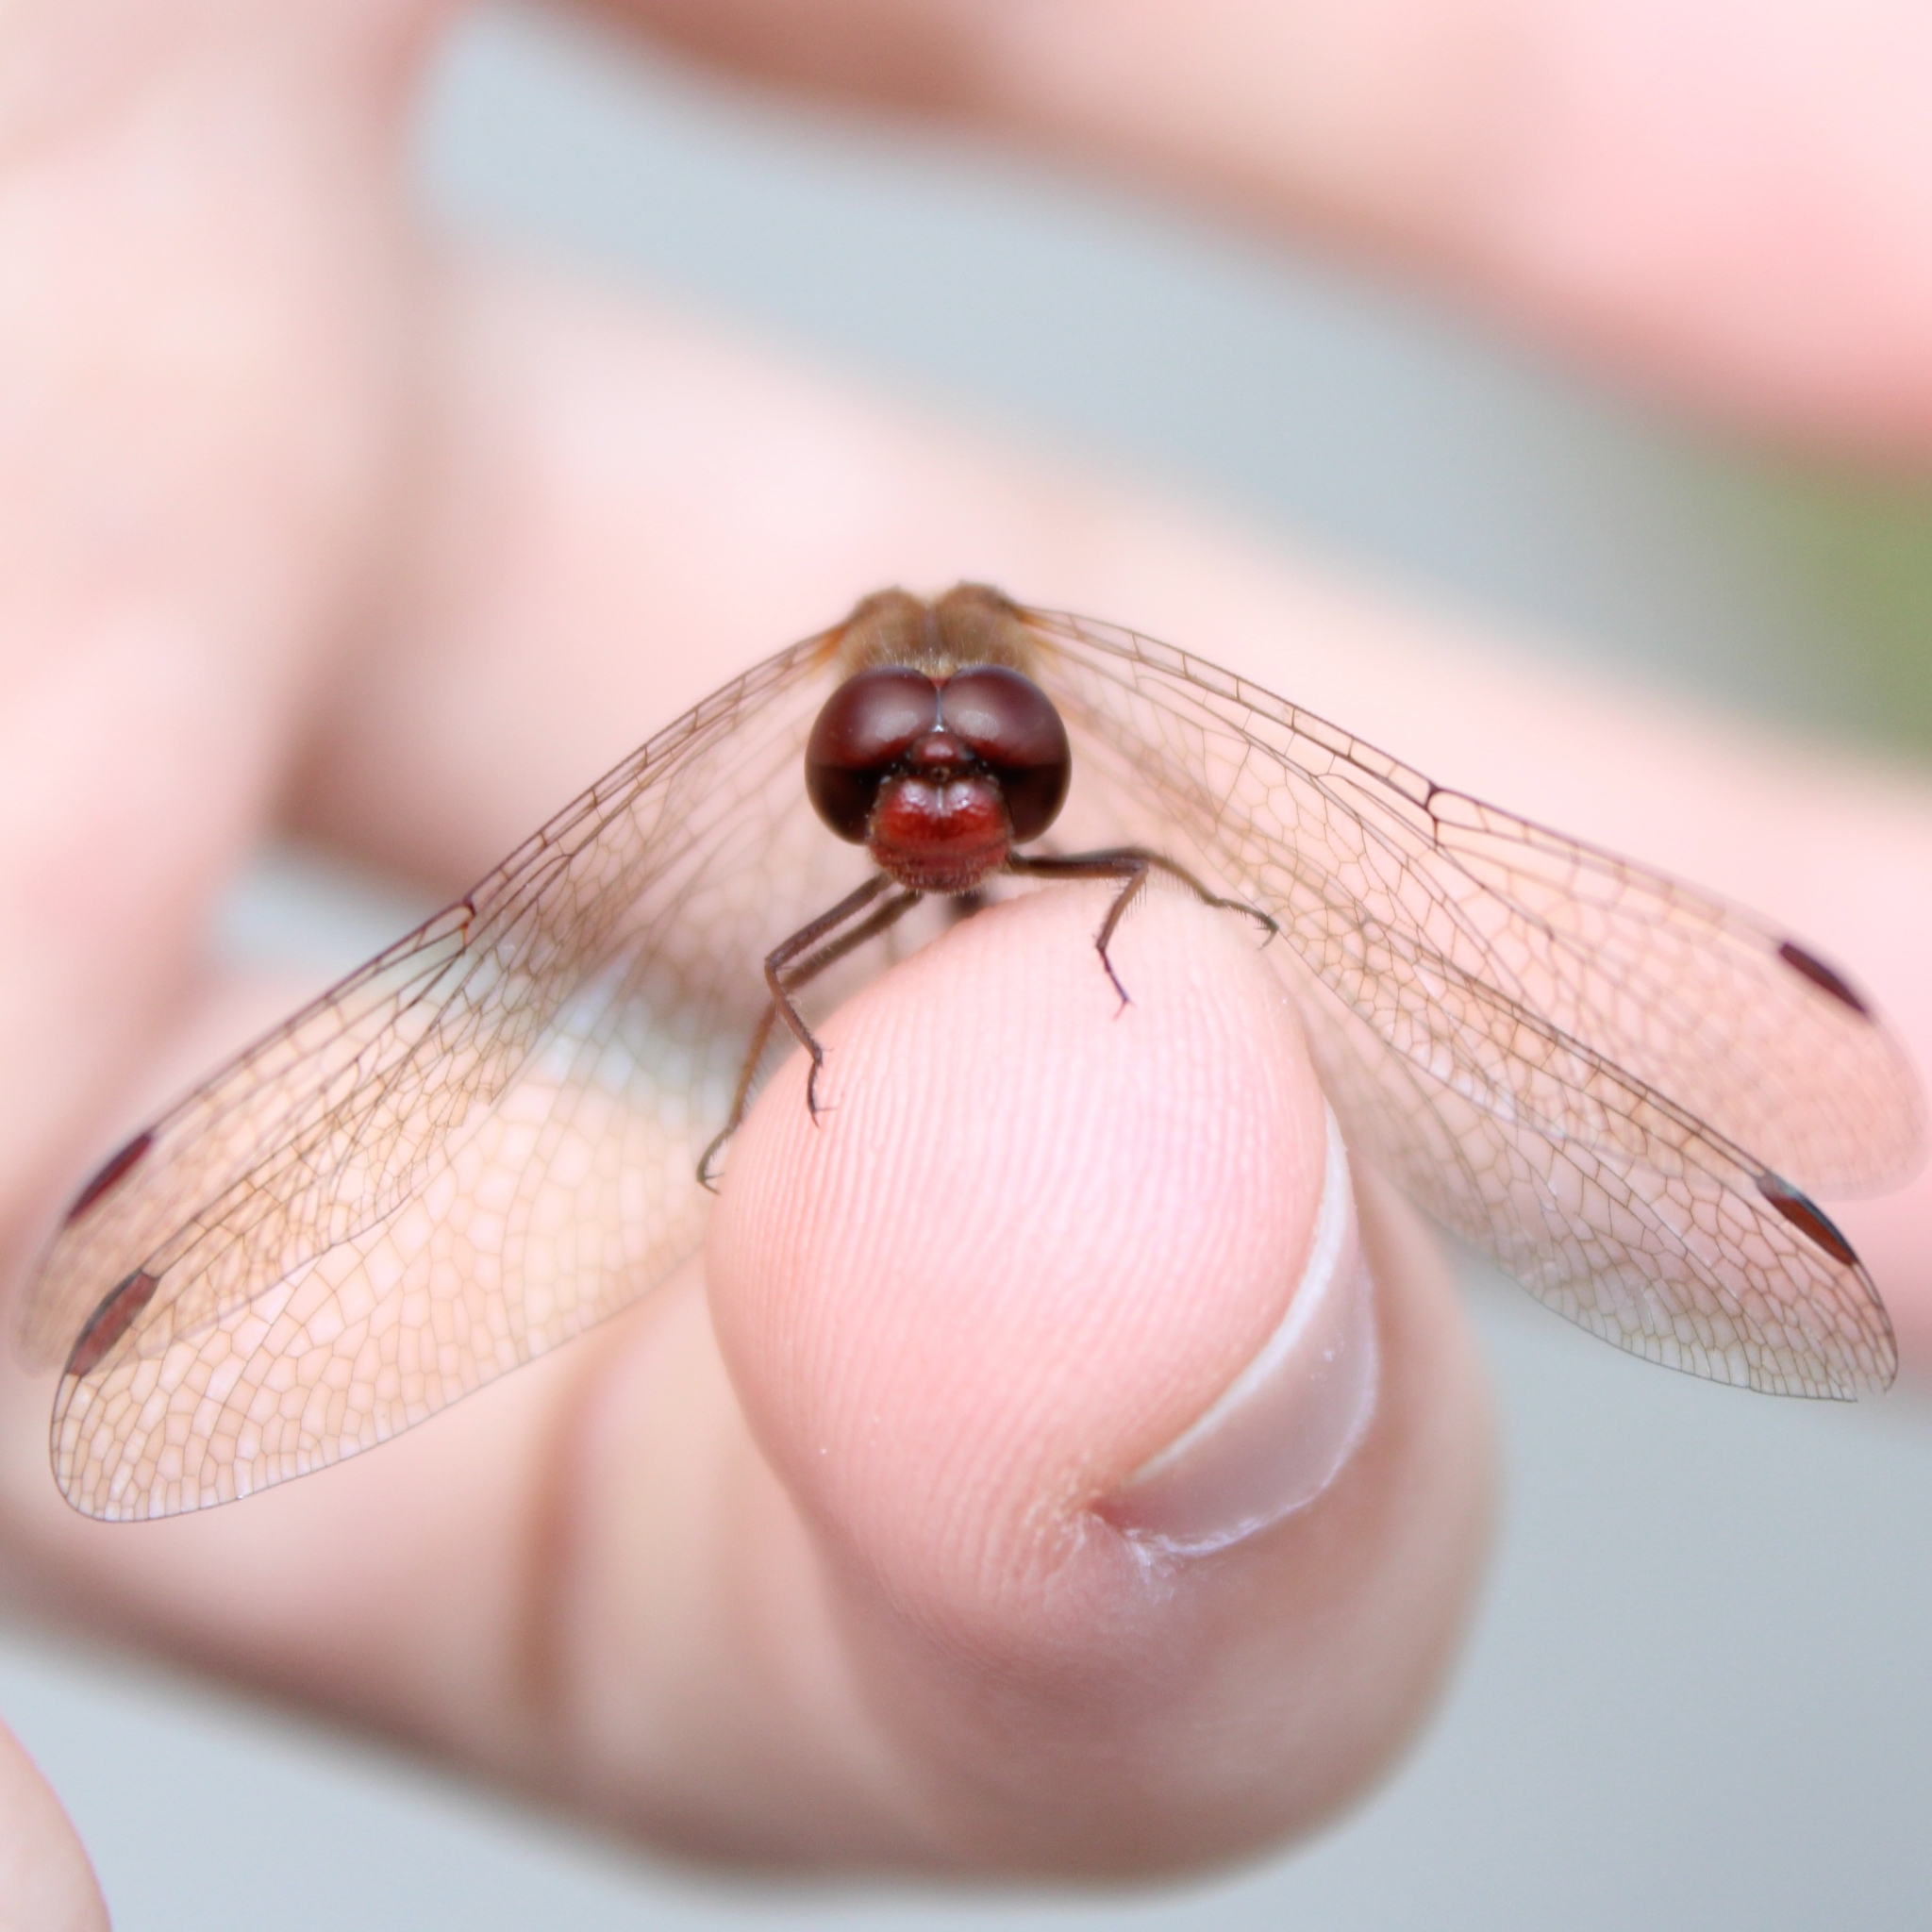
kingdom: Animalia
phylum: Arthropoda
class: Insecta
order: Odonata
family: Libellulidae
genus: Sympetrum
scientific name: Sympetrum vicinum
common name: Autumn meadowhawk
